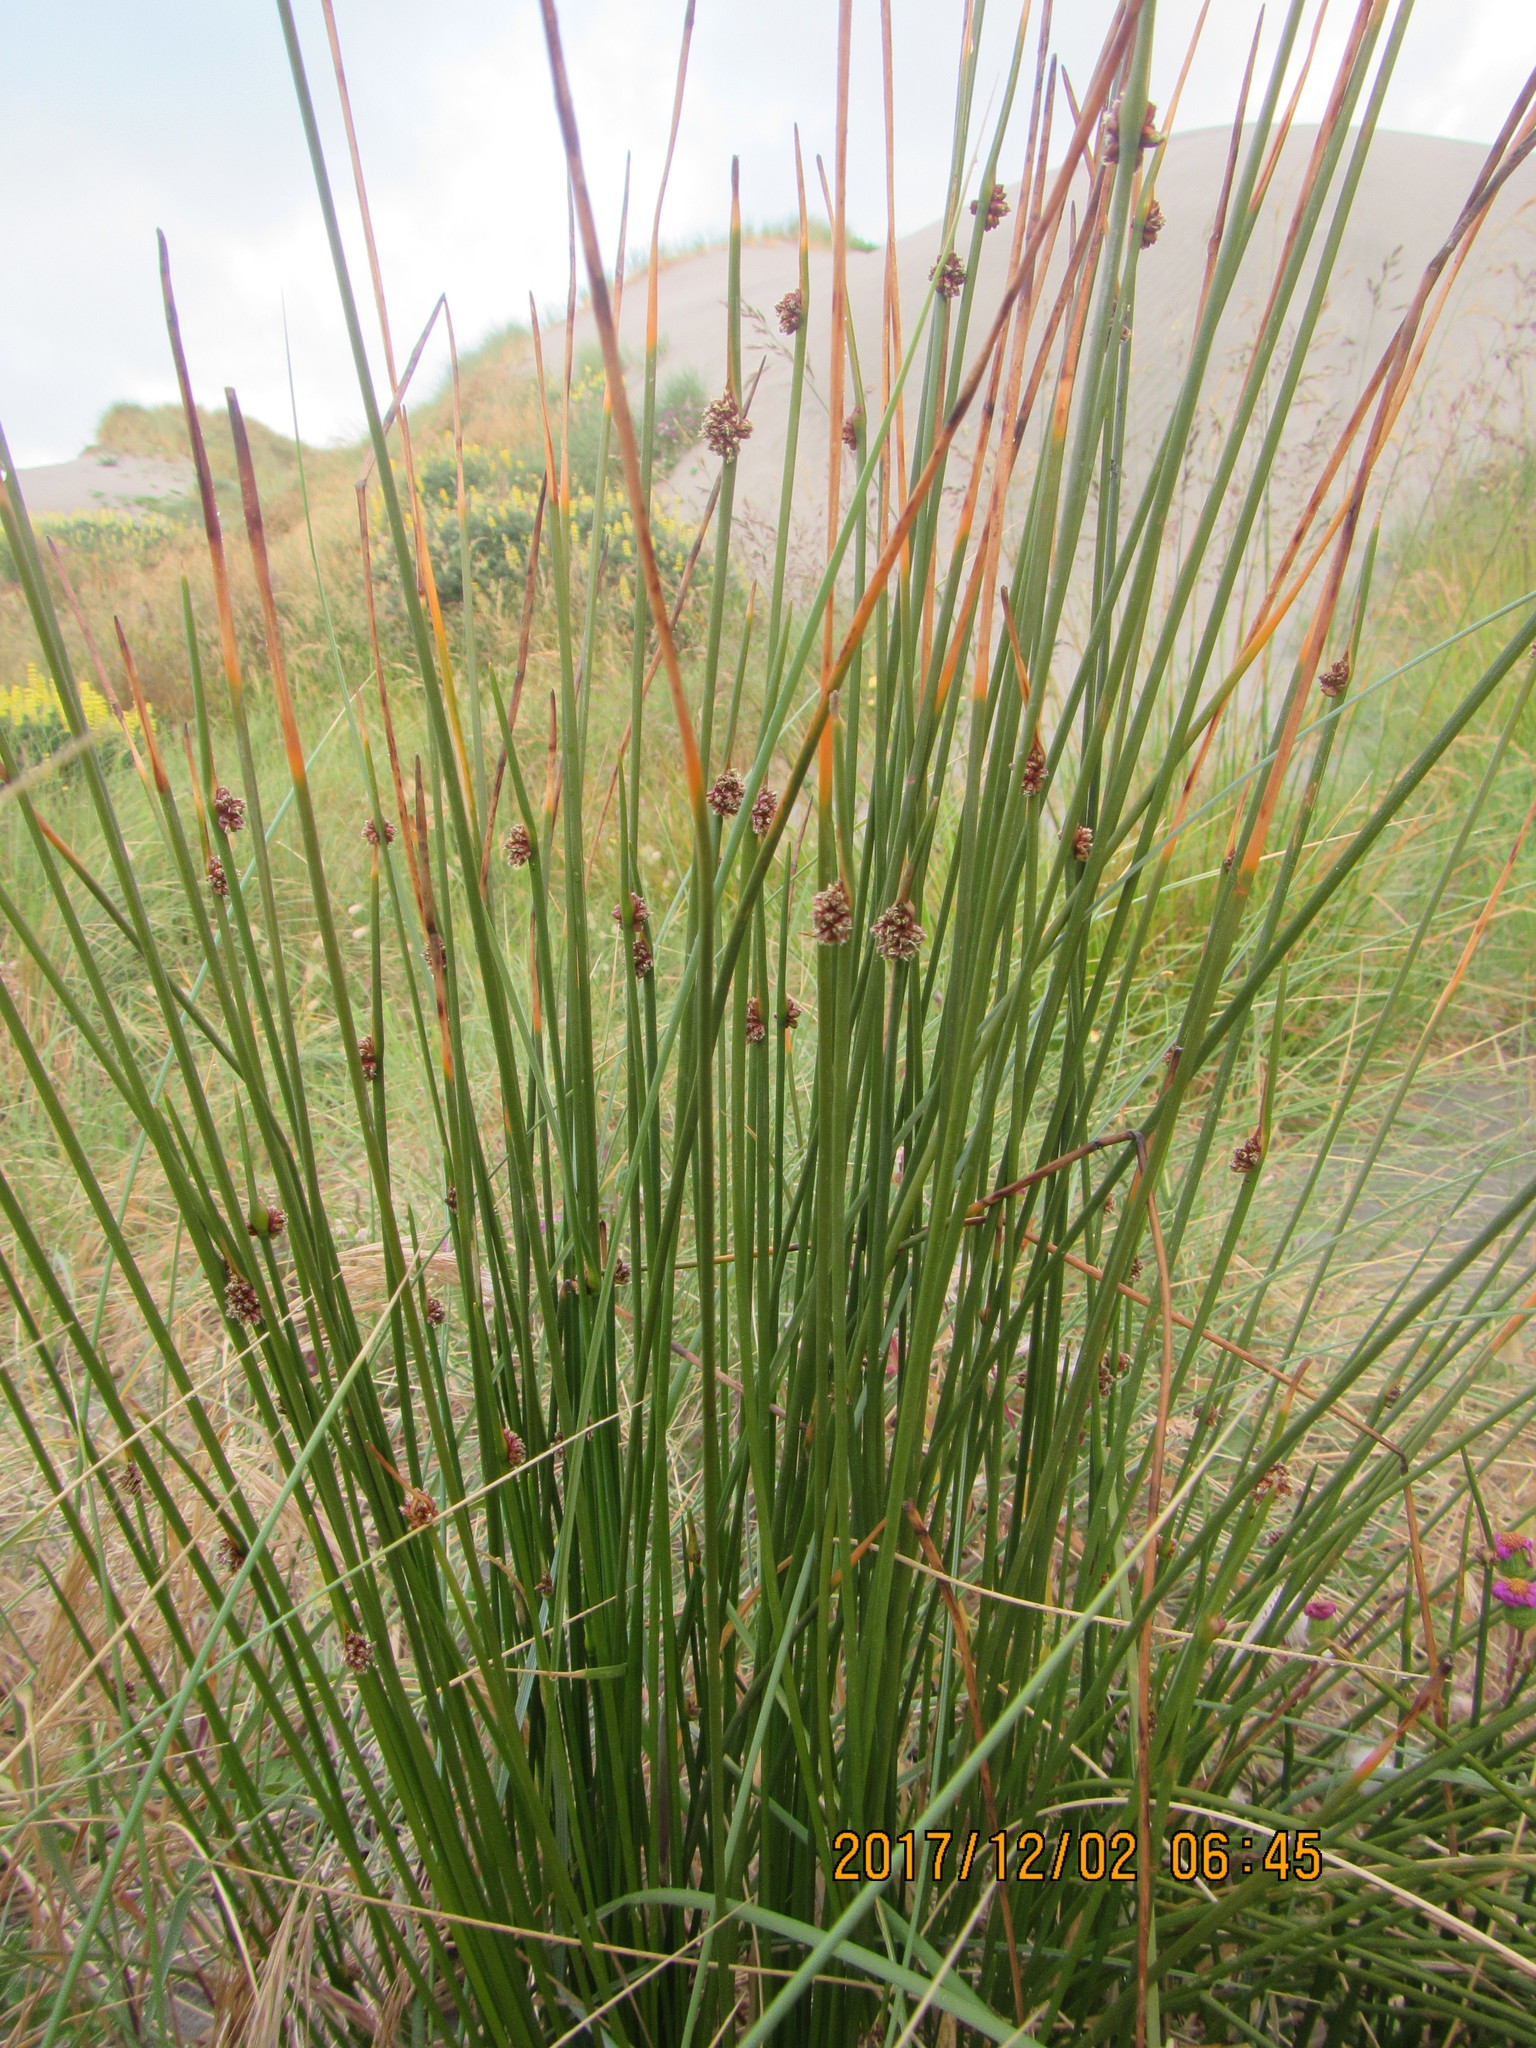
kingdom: Plantae
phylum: Tracheophyta
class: Liliopsida
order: Poales
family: Cyperaceae
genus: Ficinia
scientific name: Ficinia nodosa
